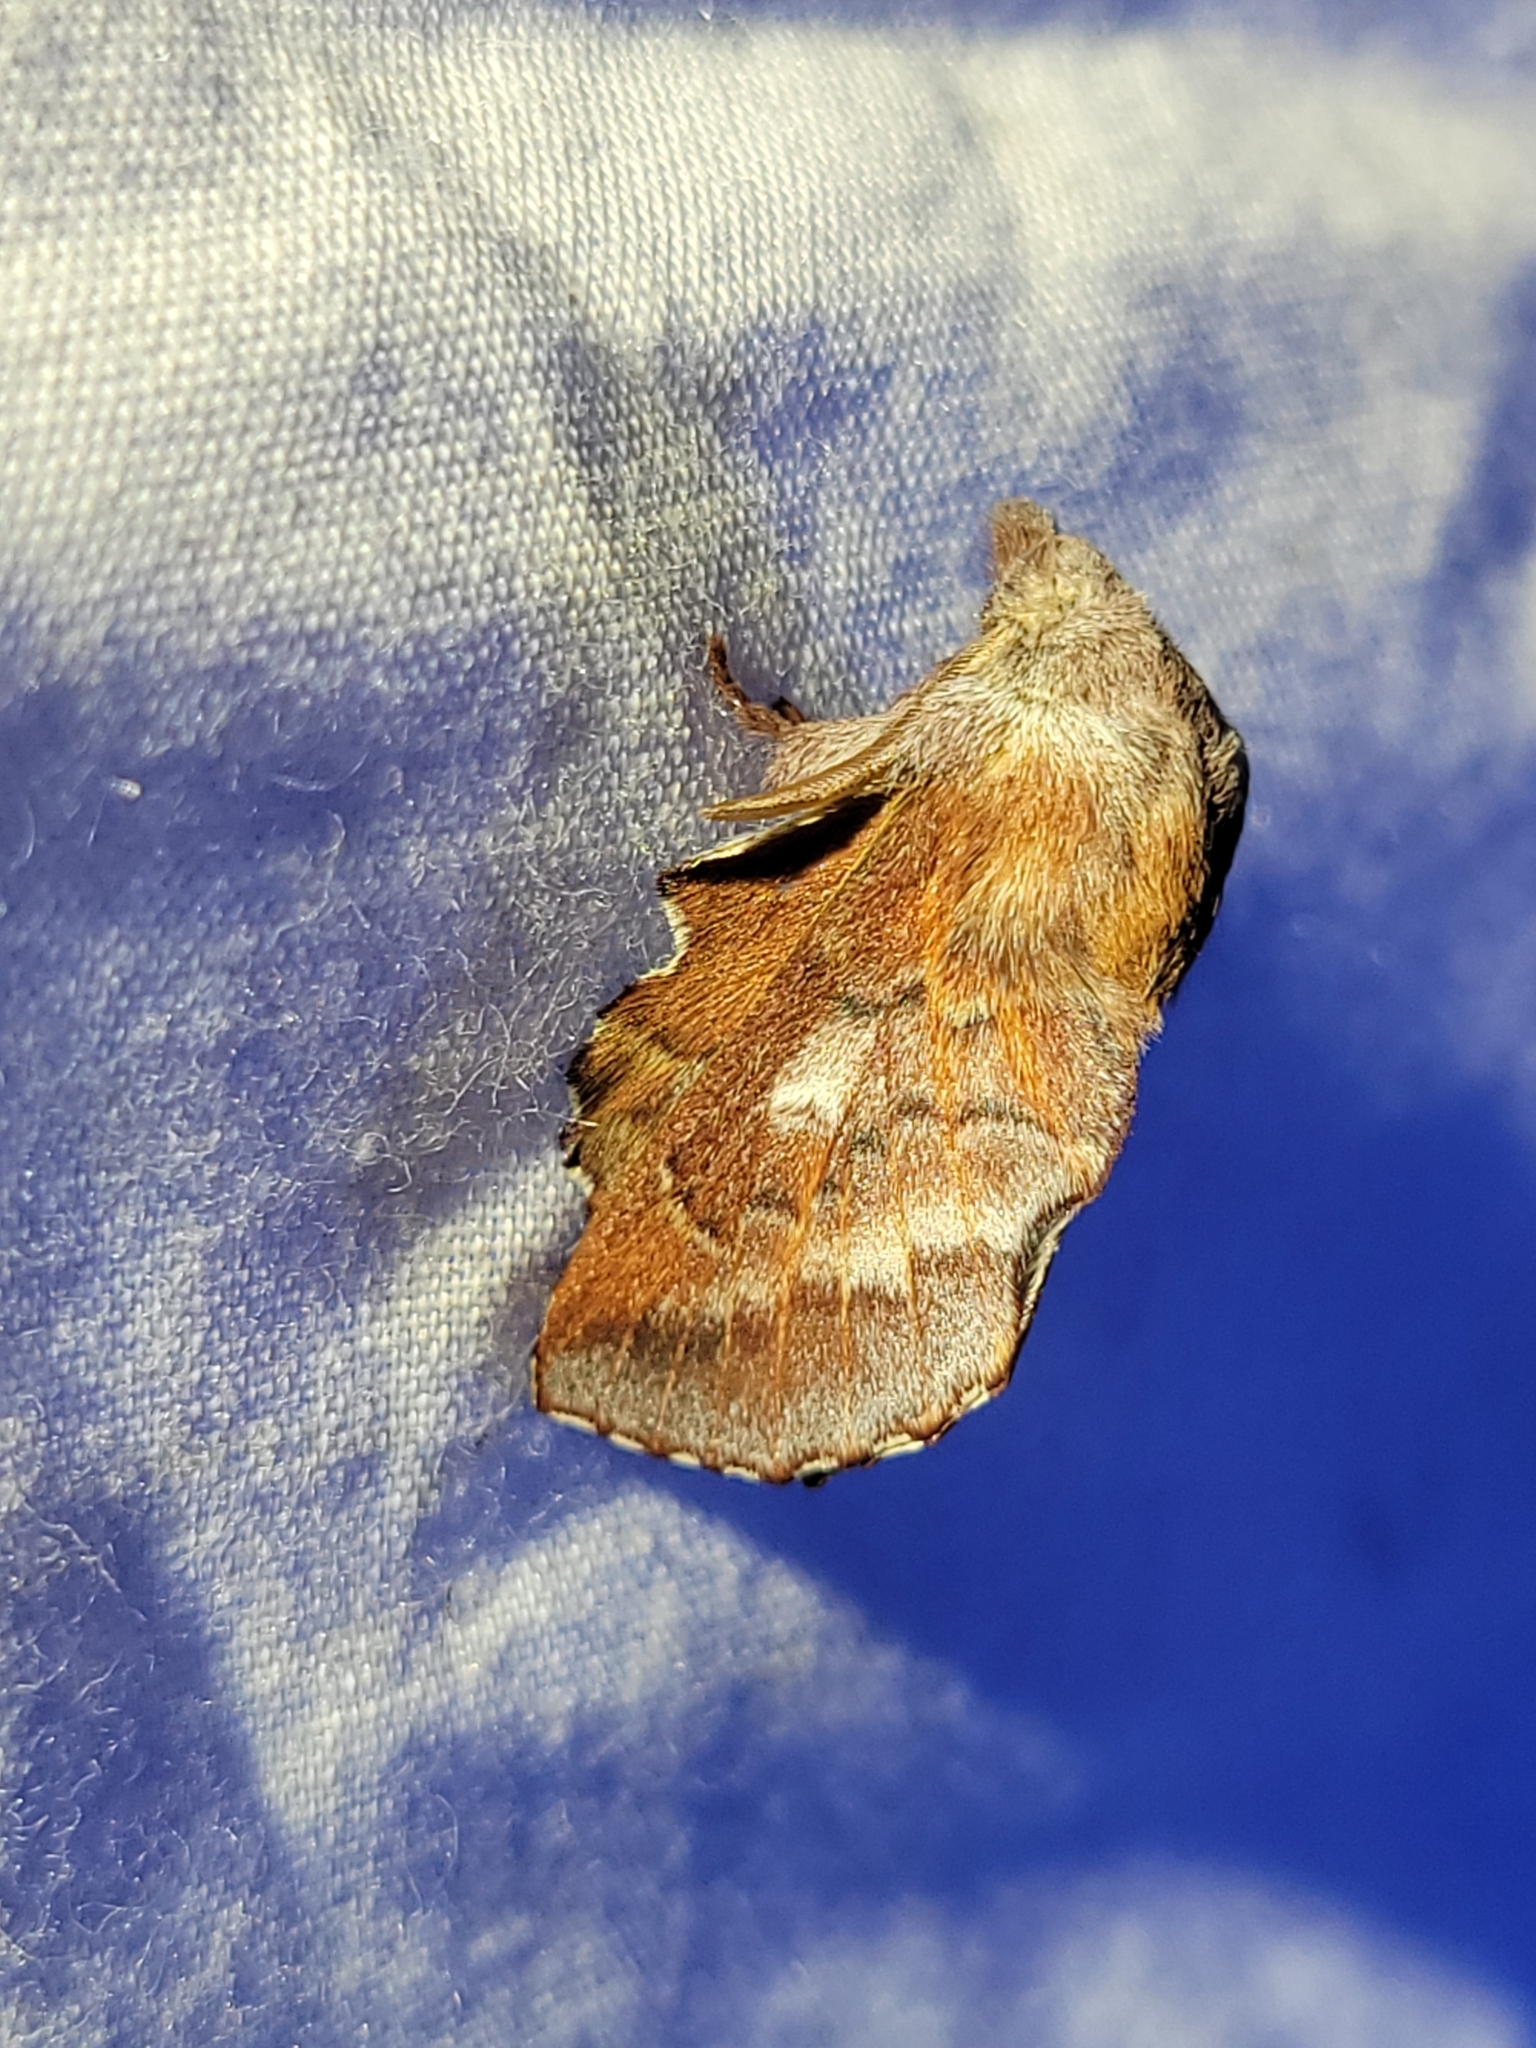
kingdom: Animalia
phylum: Arthropoda
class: Insecta
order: Lepidoptera
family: Lasiocampidae
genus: Phyllodesma
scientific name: Phyllodesma americana
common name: American lappet moth
